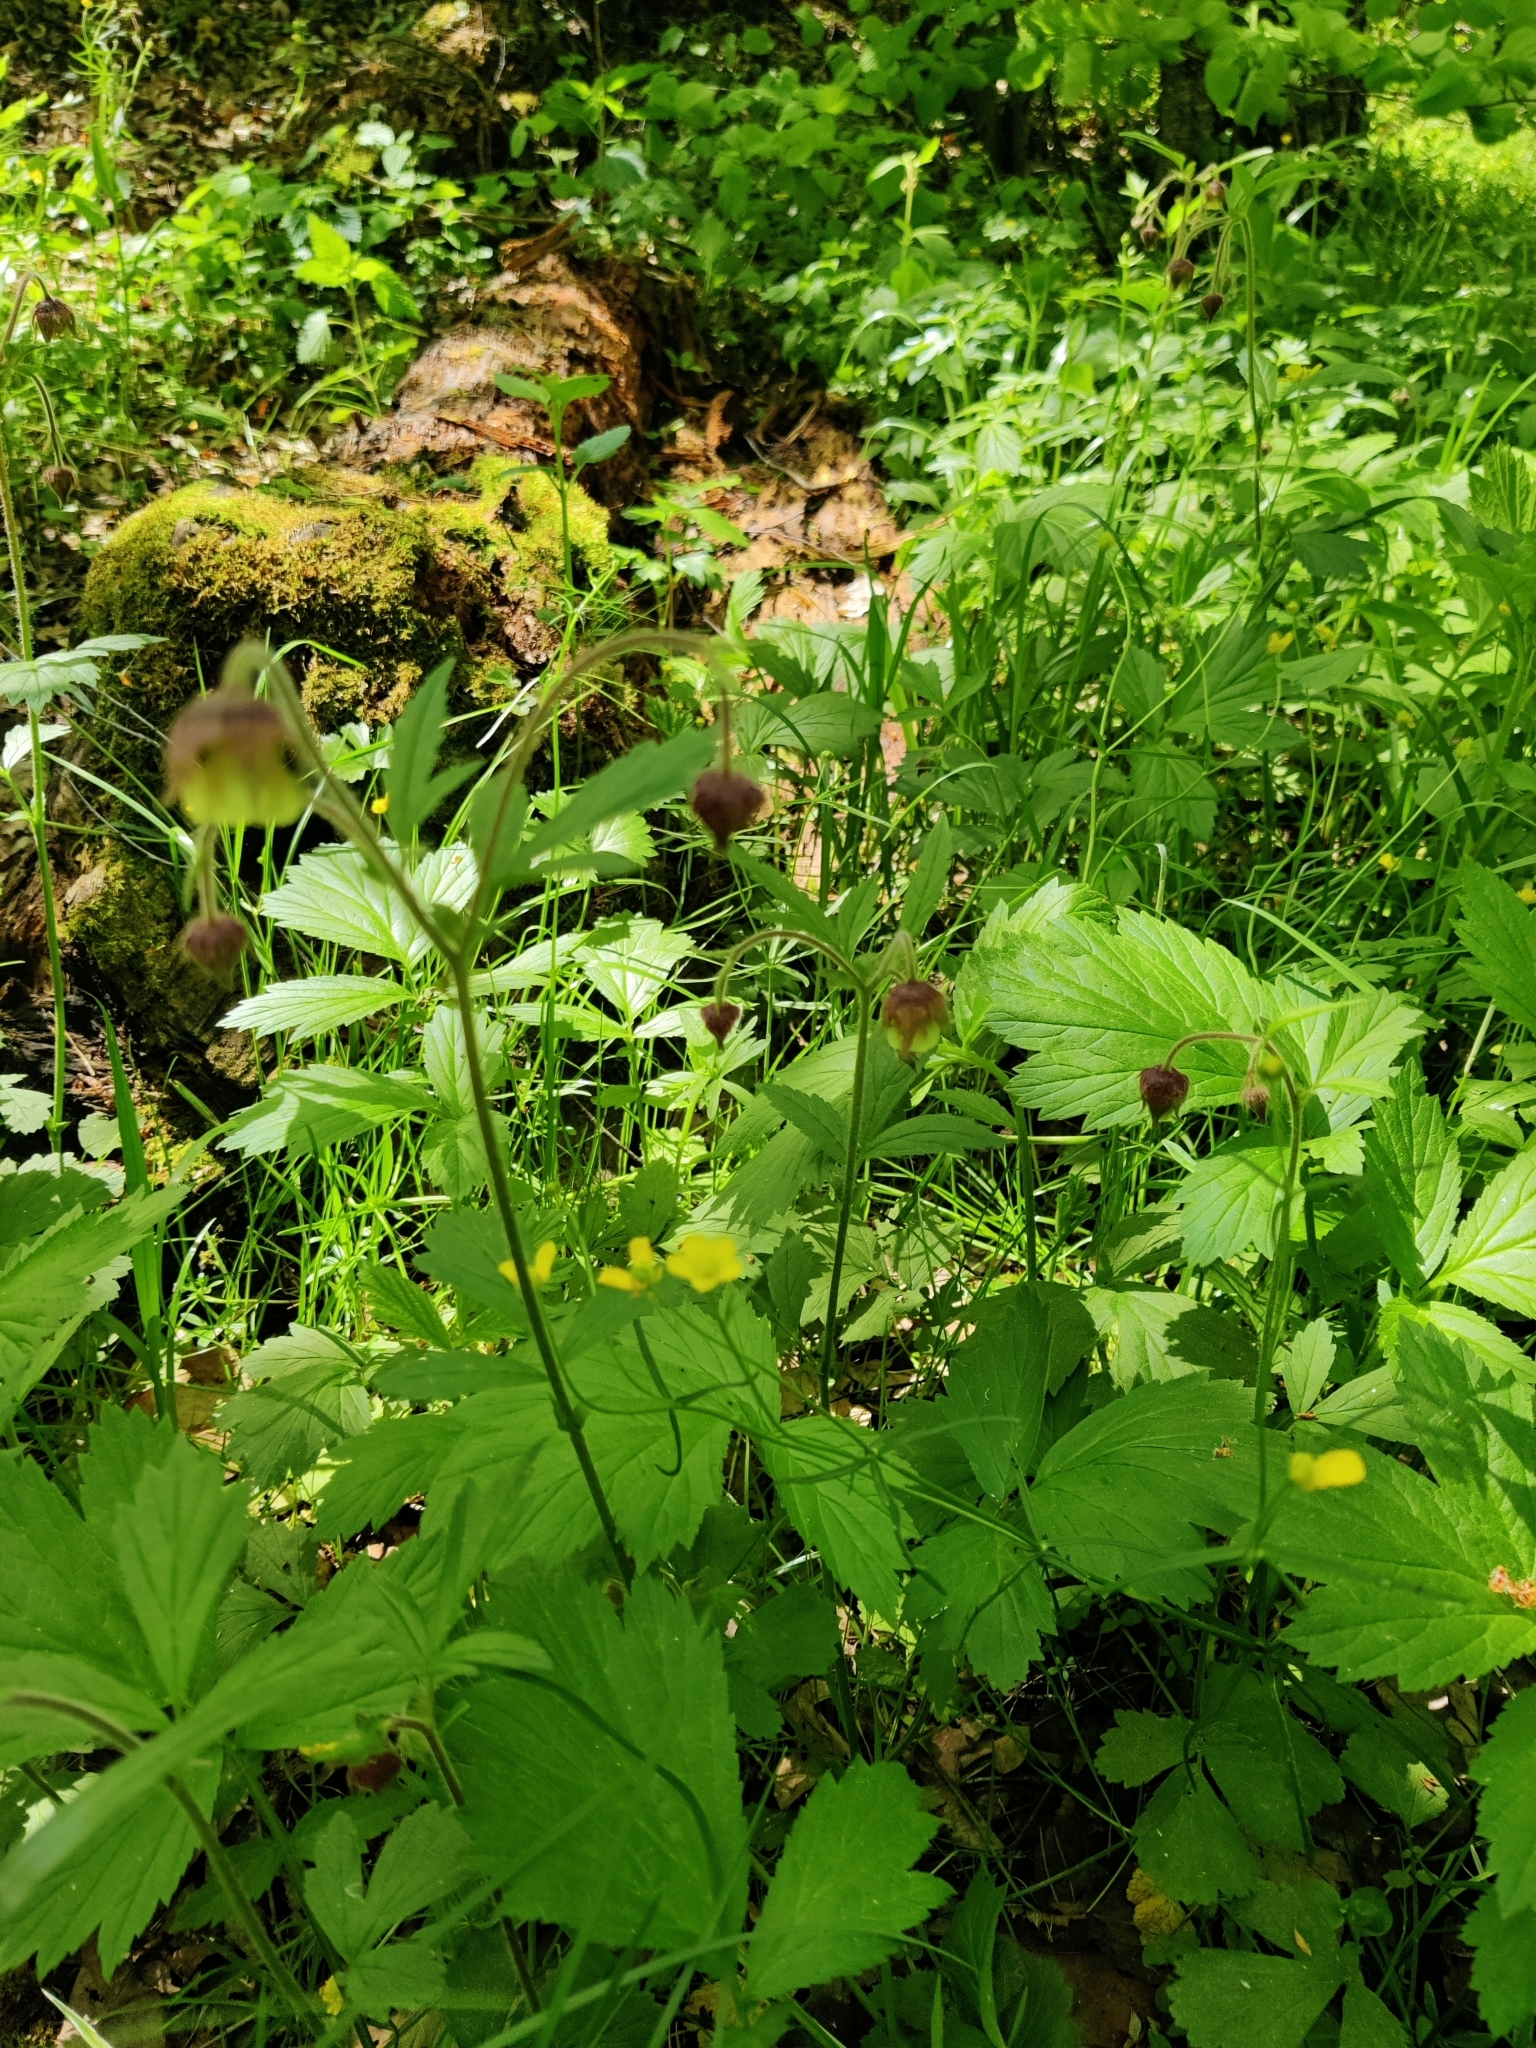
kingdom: Plantae
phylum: Tracheophyta
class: Magnoliopsida
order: Rosales
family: Rosaceae
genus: Geum
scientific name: Geum rivale
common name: Water avens
